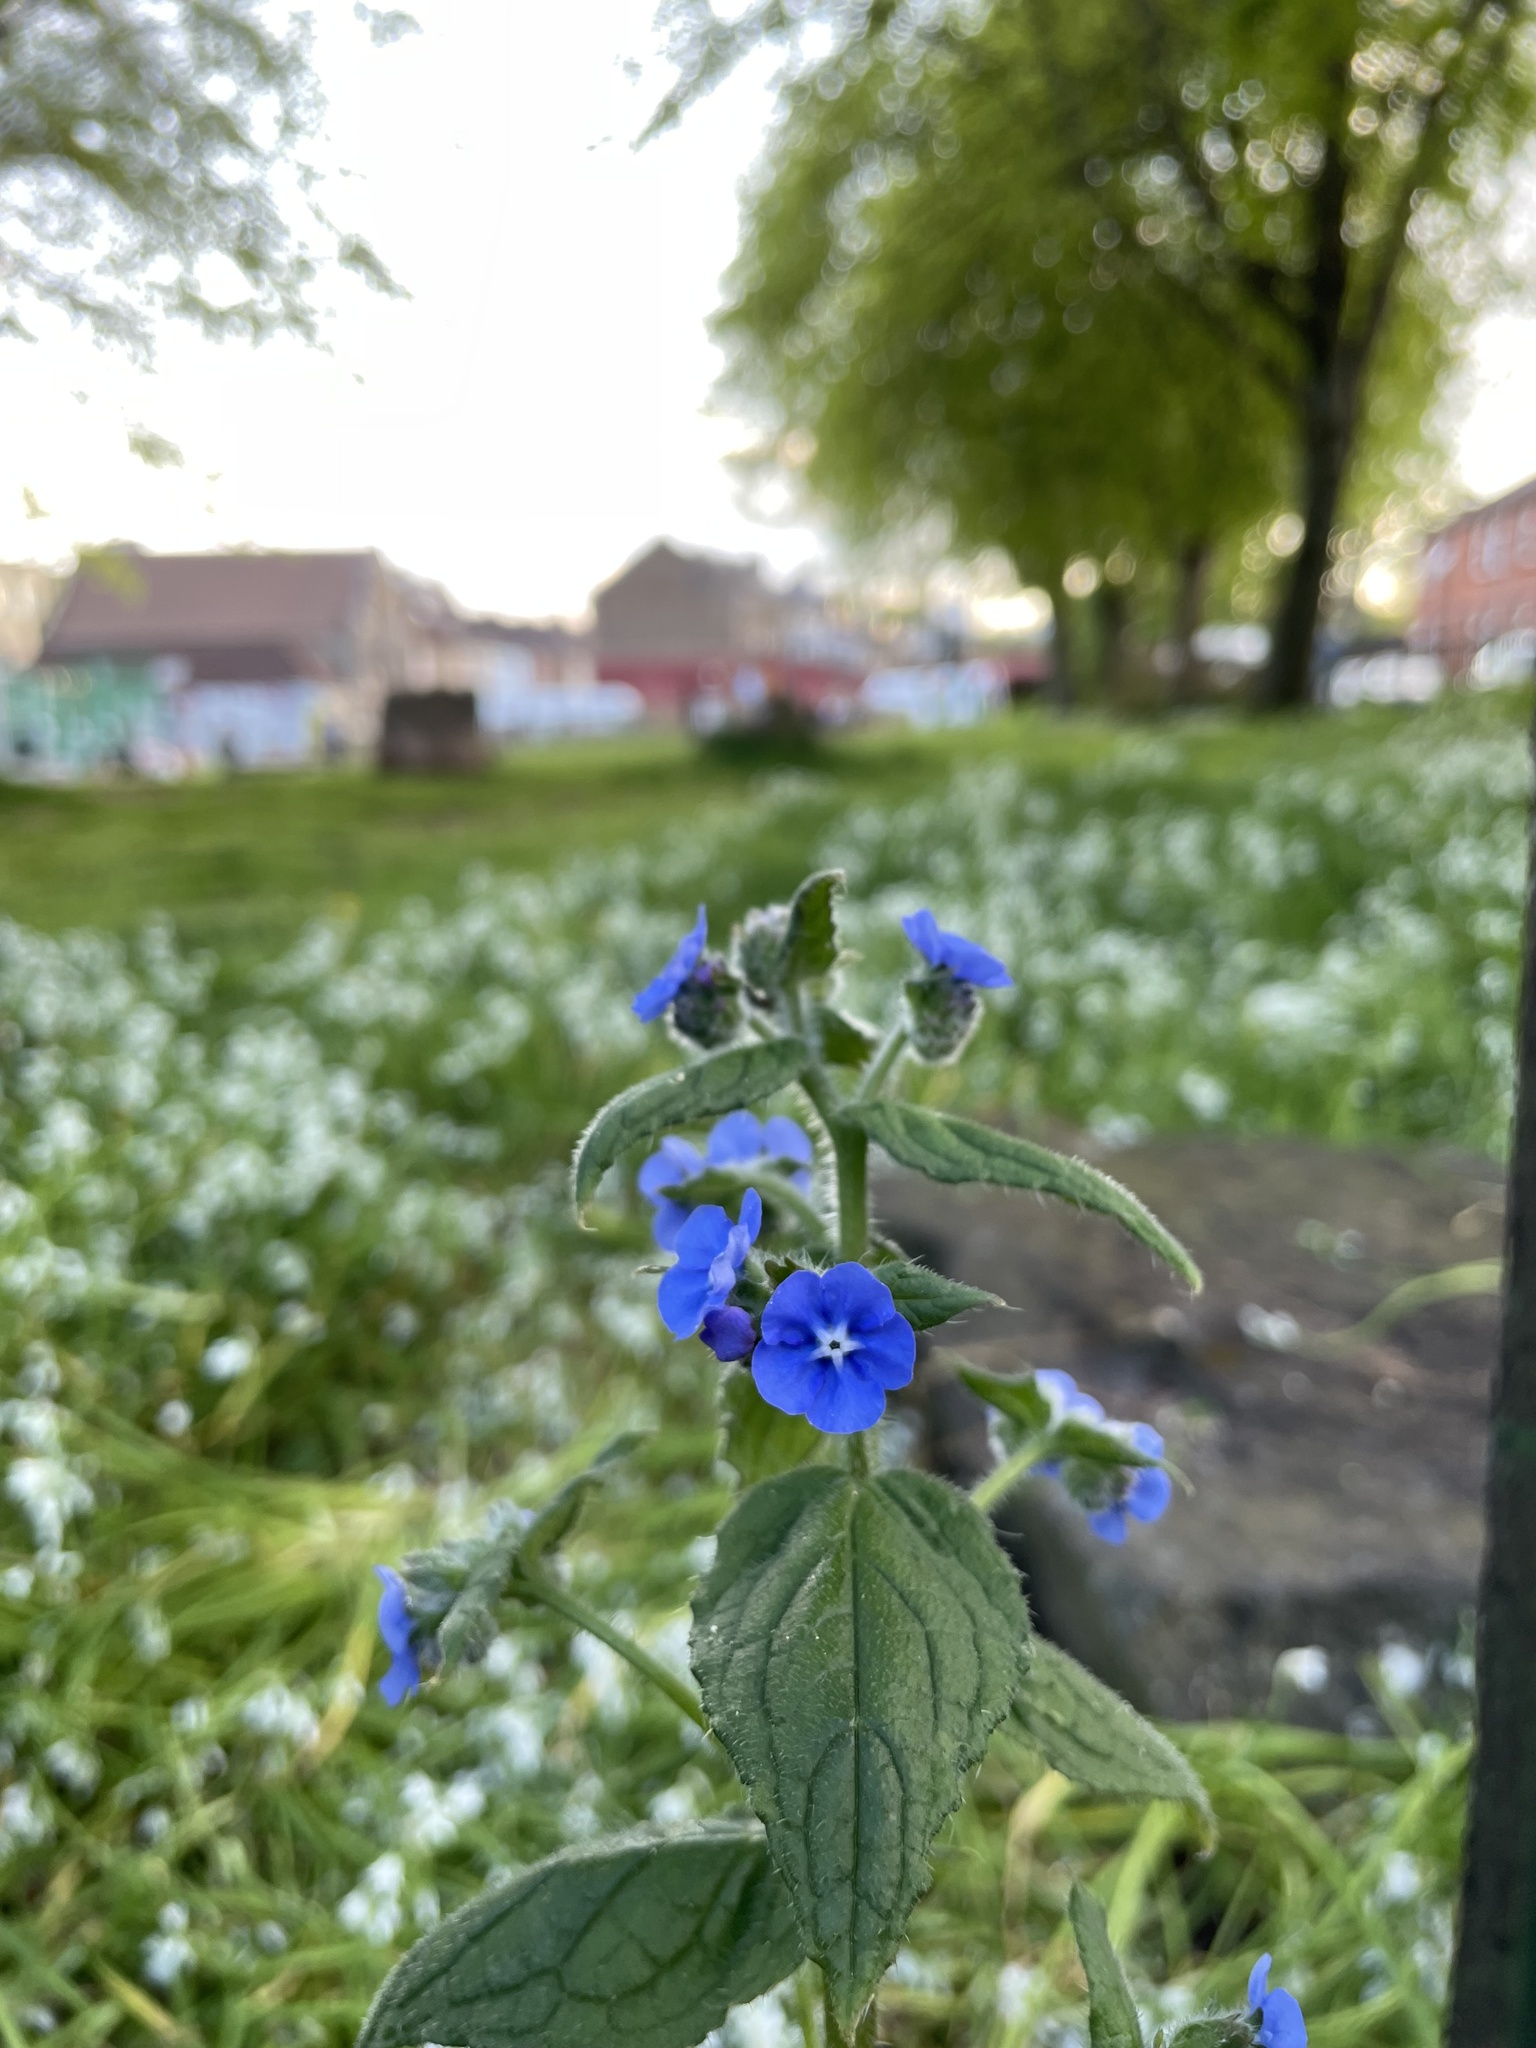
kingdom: Plantae
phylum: Tracheophyta
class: Magnoliopsida
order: Boraginales
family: Boraginaceae
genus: Pentaglottis
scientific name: Pentaglottis sempervirens
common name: Green alkanet
